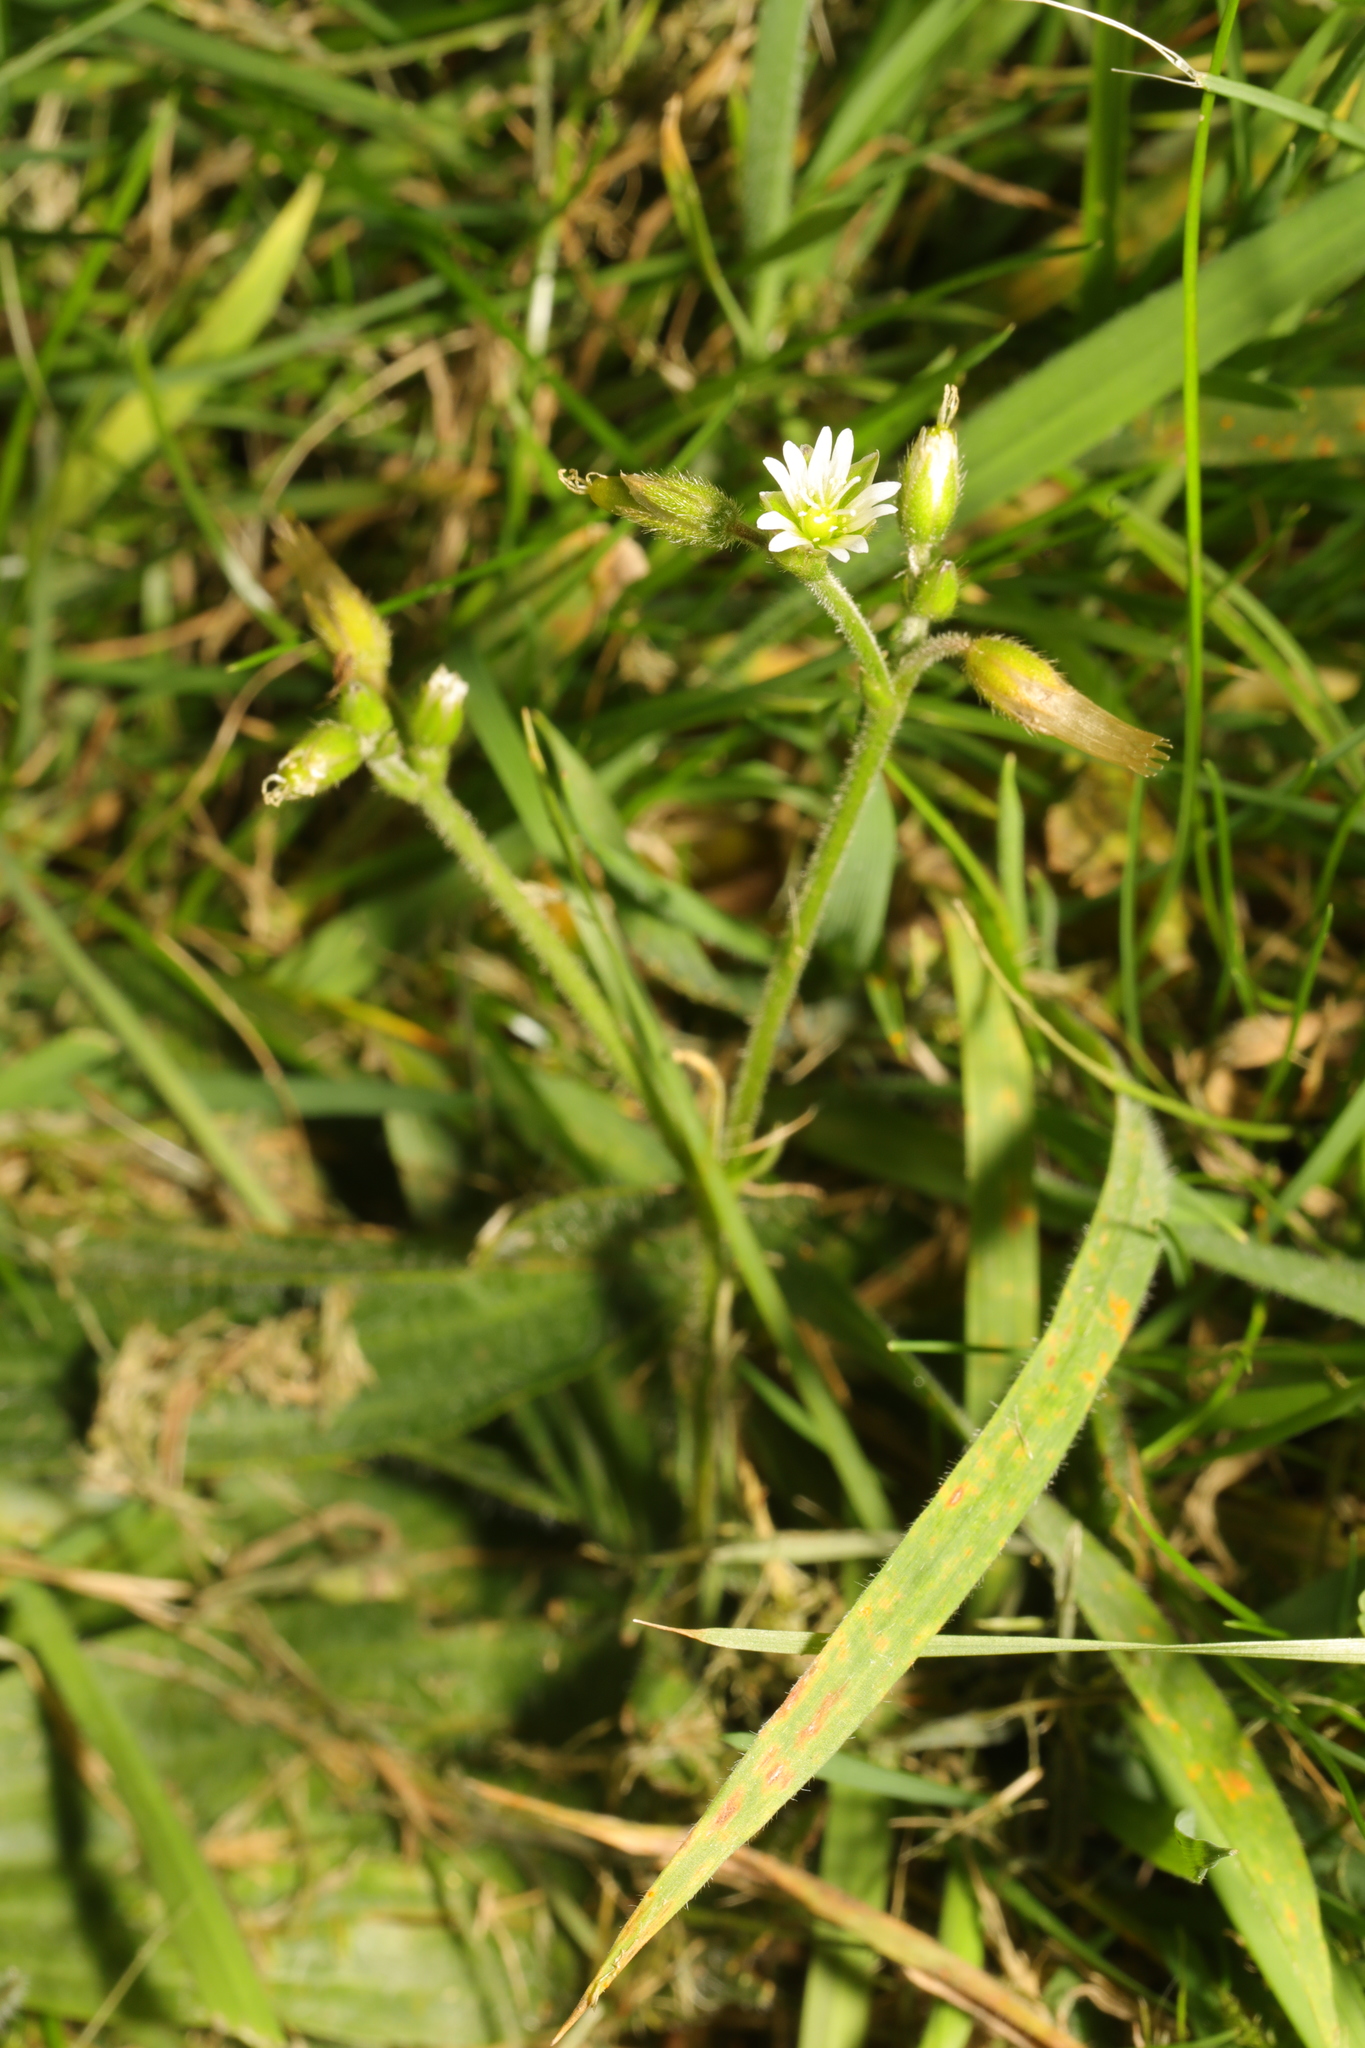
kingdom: Plantae
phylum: Tracheophyta
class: Magnoliopsida
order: Caryophyllales
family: Caryophyllaceae
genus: Cerastium
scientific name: Cerastium fontanum
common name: Common mouse-ear
